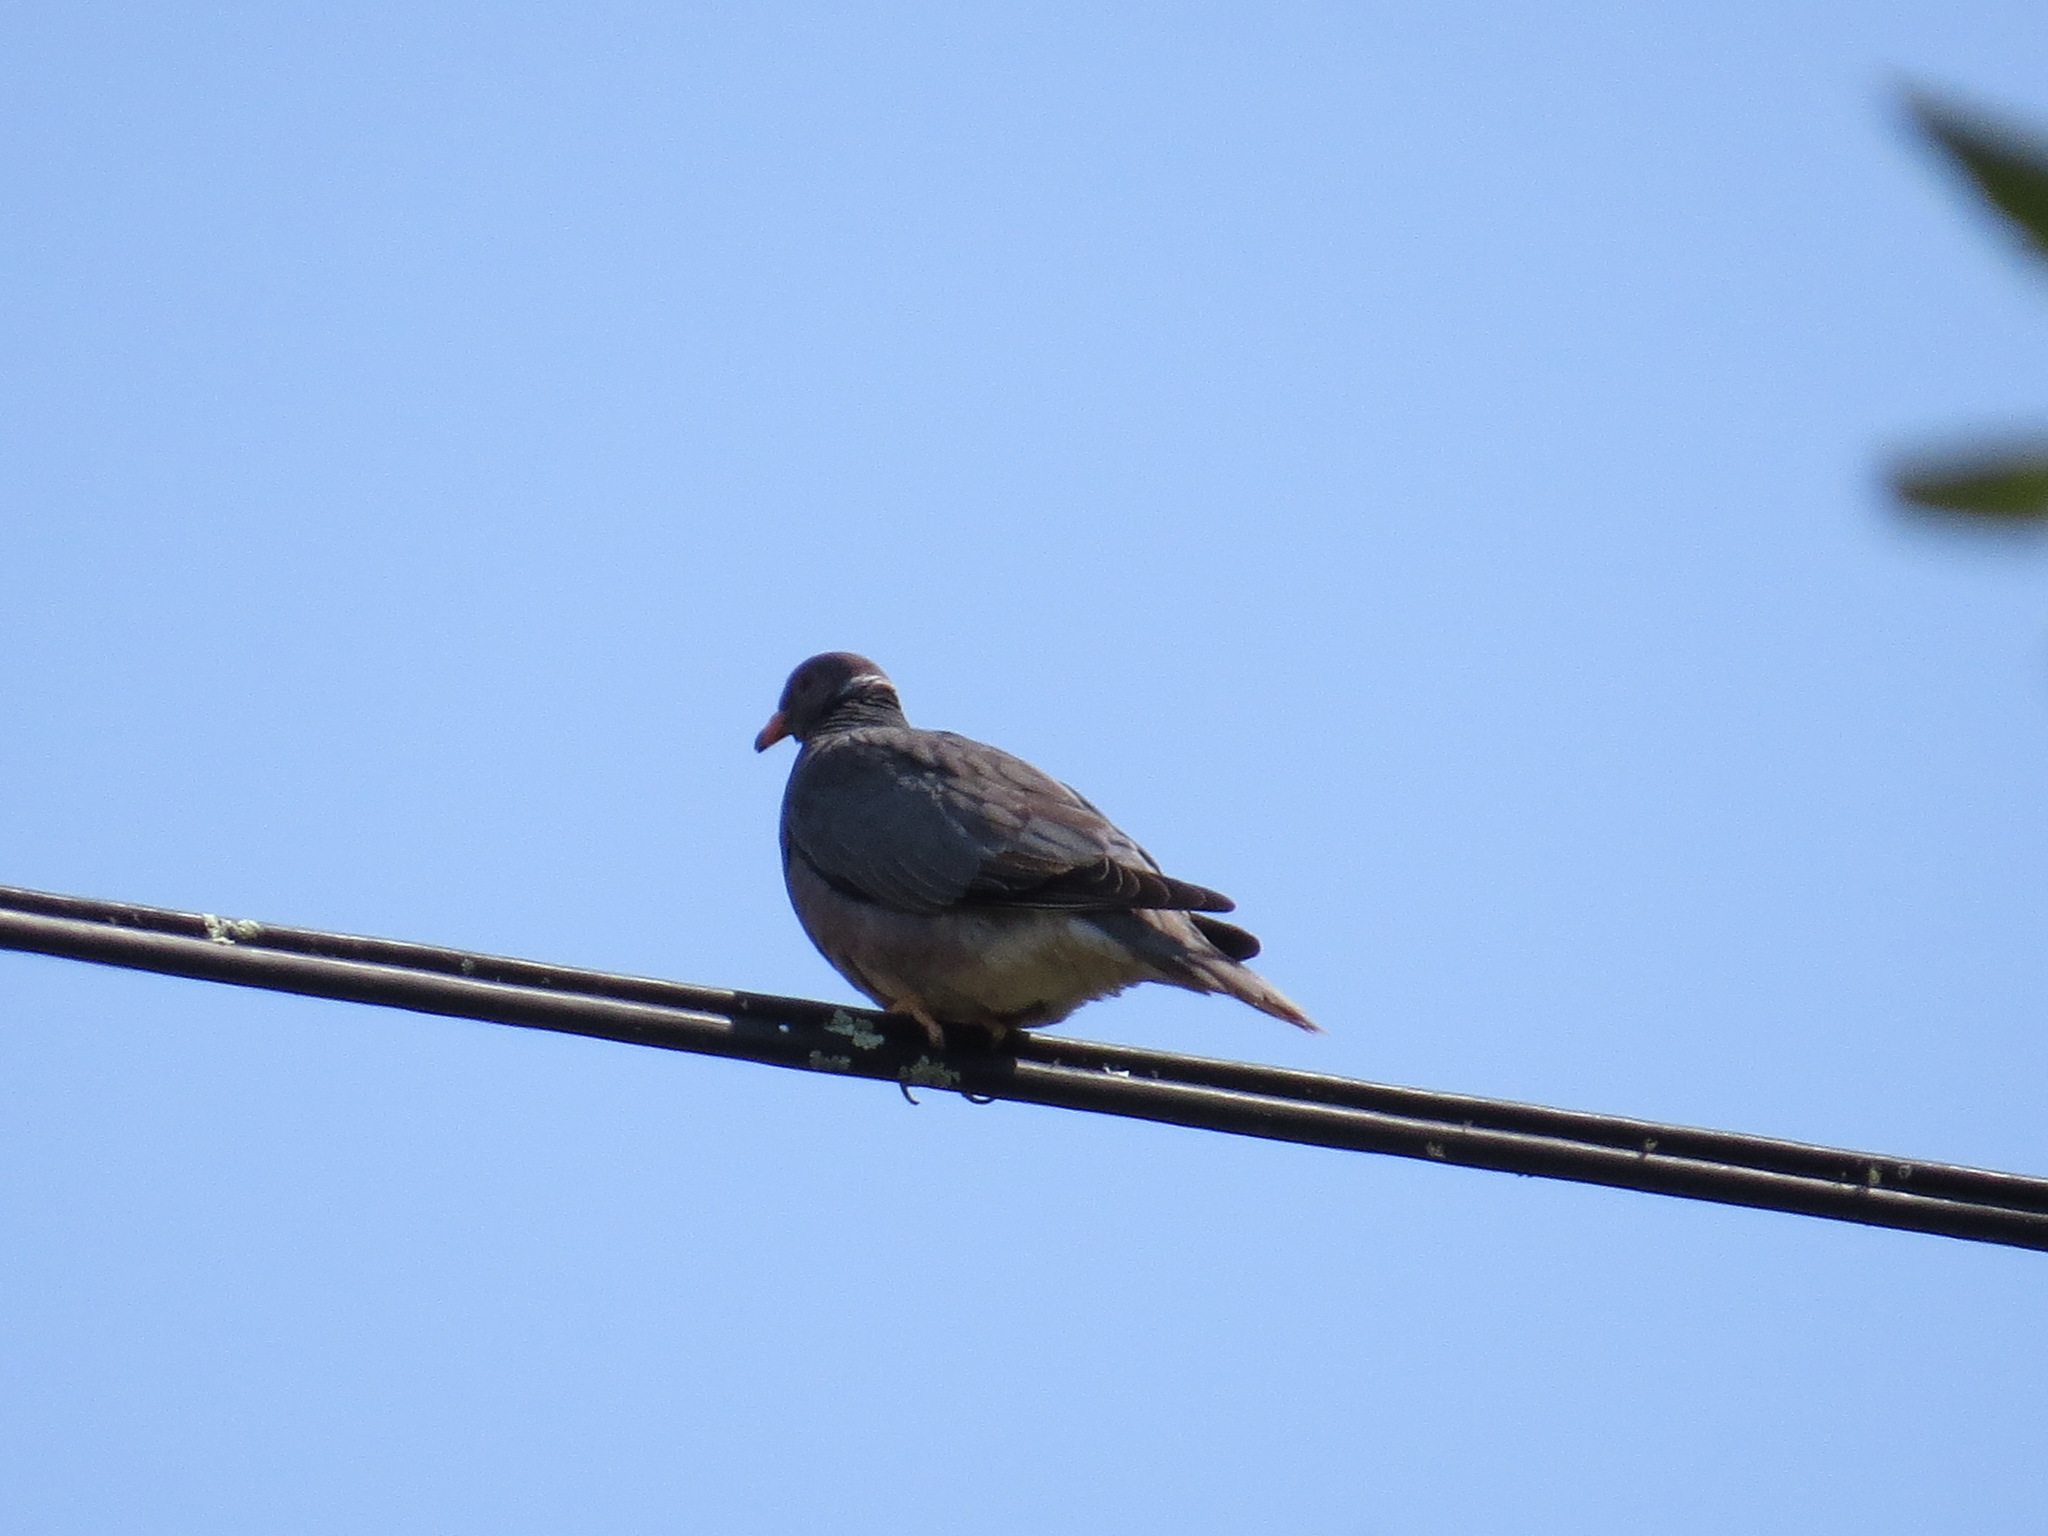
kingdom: Animalia
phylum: Chordata
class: Aves
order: Columbiformes
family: Columbidae
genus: Patagioenas
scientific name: Patagioenas fasciata
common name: Band-tailed pigeon
